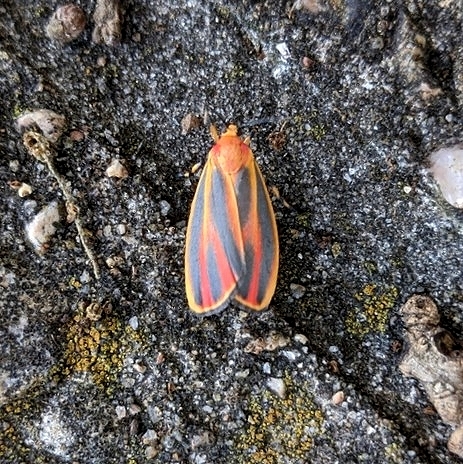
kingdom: Animalia
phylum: Arthropoda
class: Insecta
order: Lepidoptera
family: Erebidae
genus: Hypoprepia
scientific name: Hypoprepia fucosa
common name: Painted lichen moth
